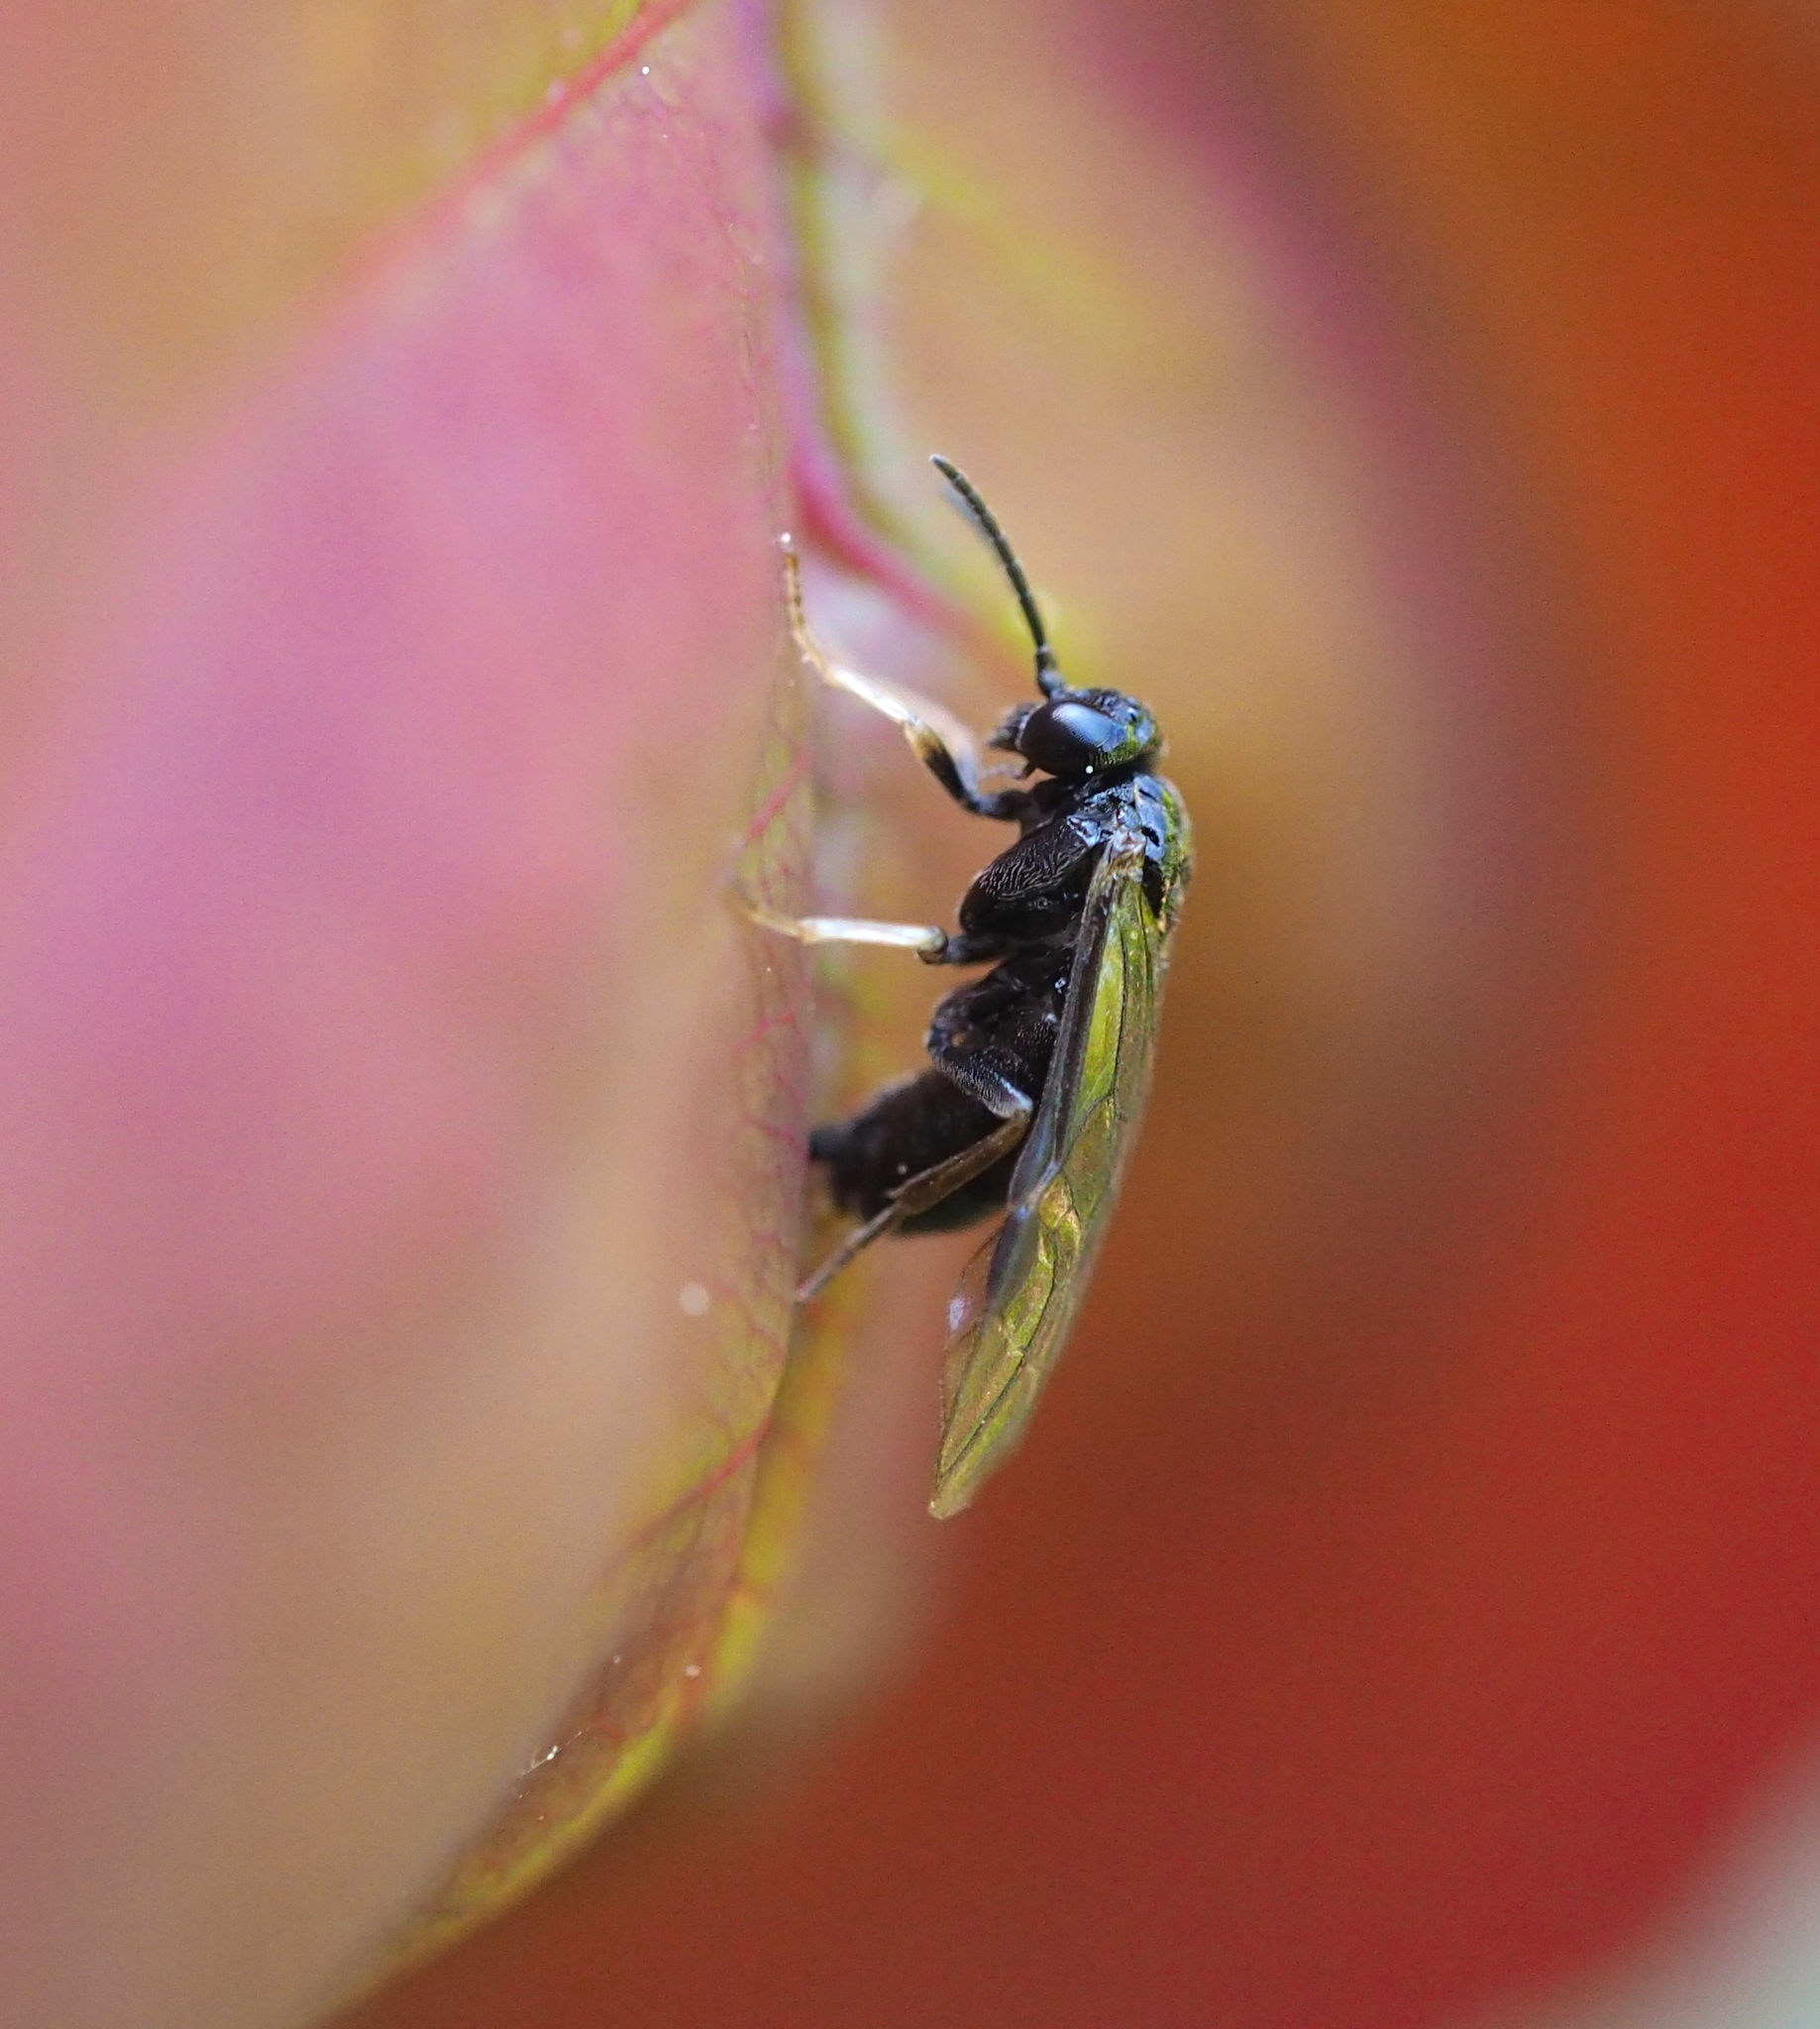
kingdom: Animalia
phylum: Arthropoda
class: Insecta
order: Hymenoptera
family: Tenthredinidae
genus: Blennocampa
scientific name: Blennocampa phyllocolpa
